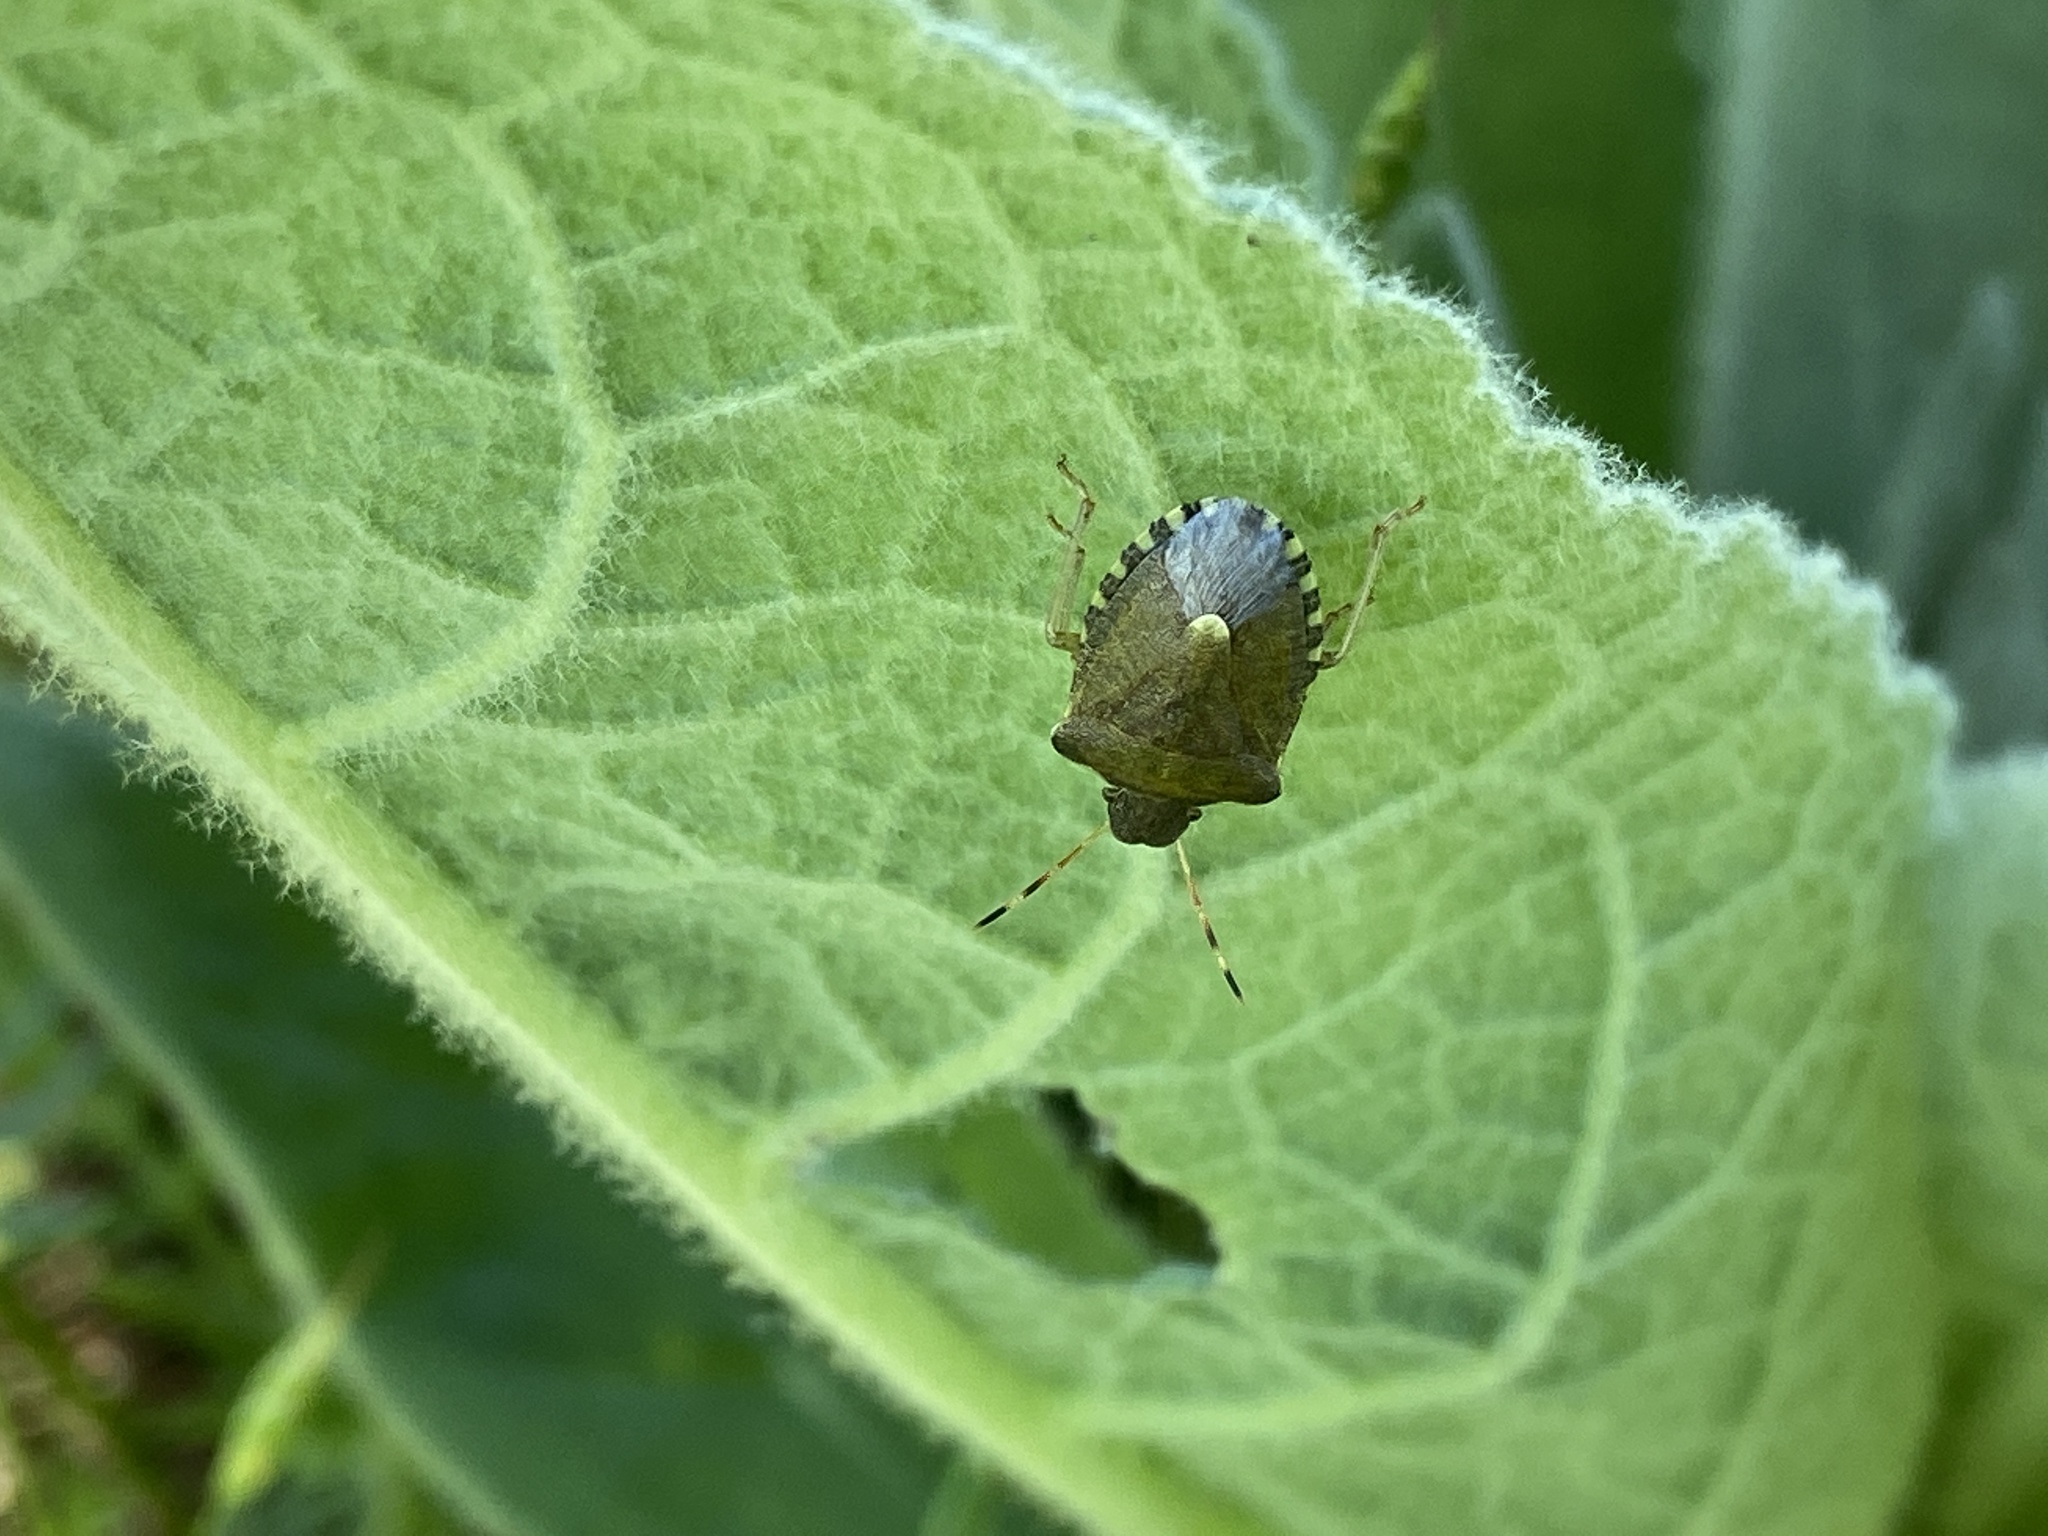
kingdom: Animalia
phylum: Arthropoda
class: Insecta
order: Hemiptera
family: Pentatomidae
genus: Holcostethus
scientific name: Holcostethus strictus
